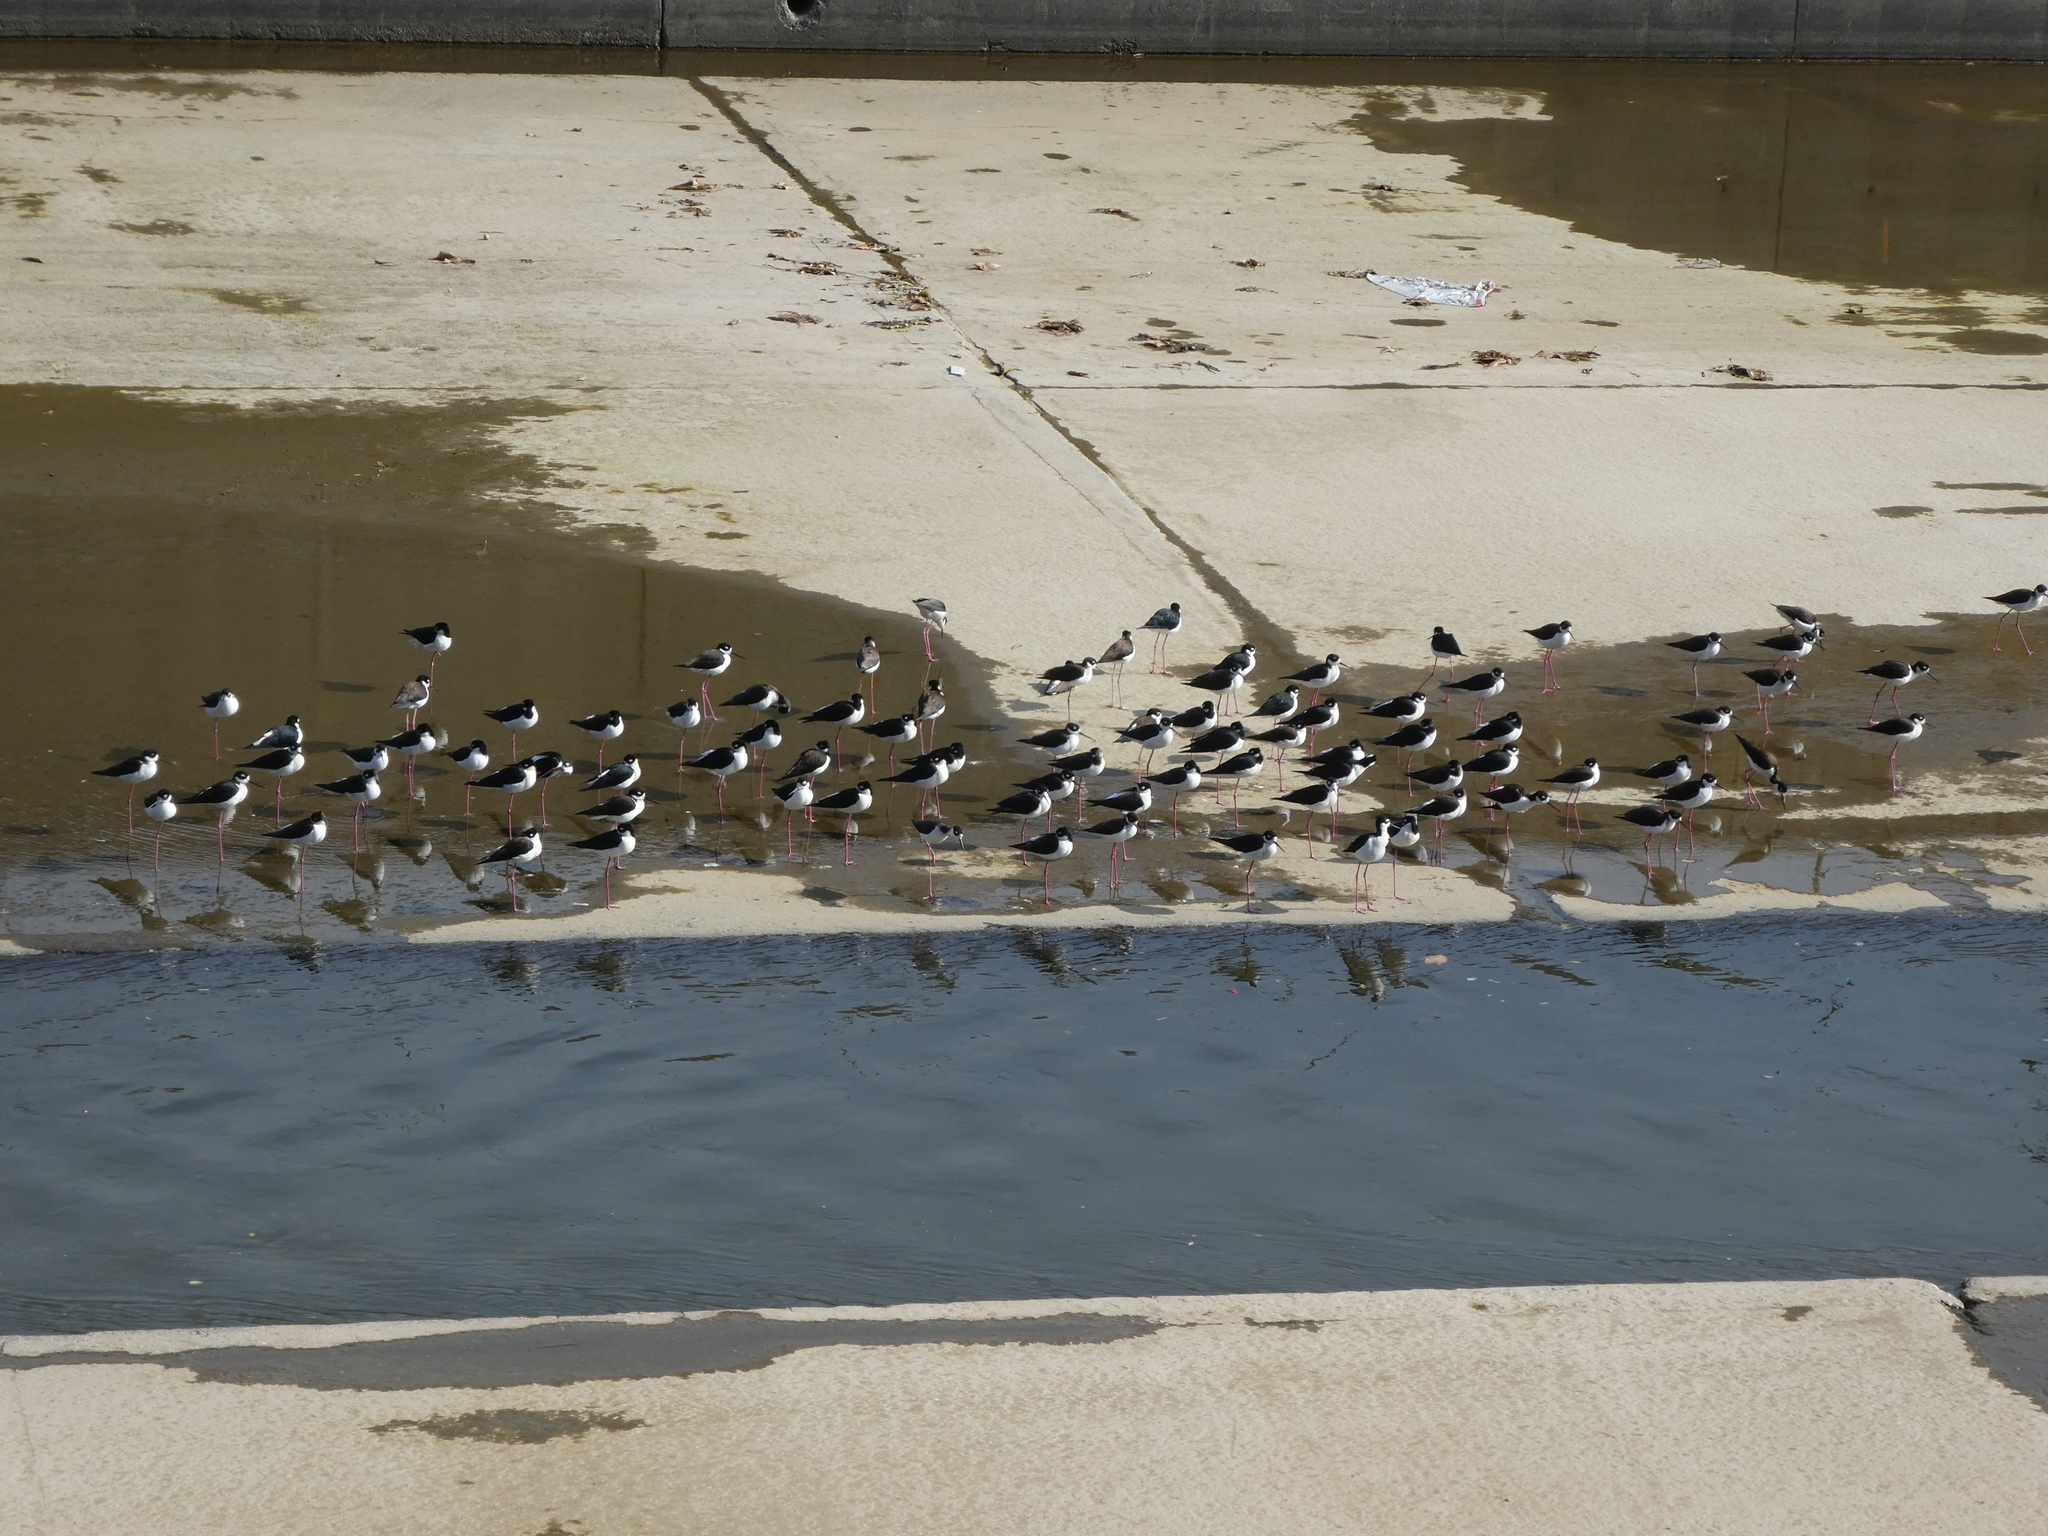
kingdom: Animalia
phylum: Chordata
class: Aves
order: Charadriiformes
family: Recurvirostridae
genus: Himantopus
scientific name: Himantopus mexicanus
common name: Black-necked stilt
